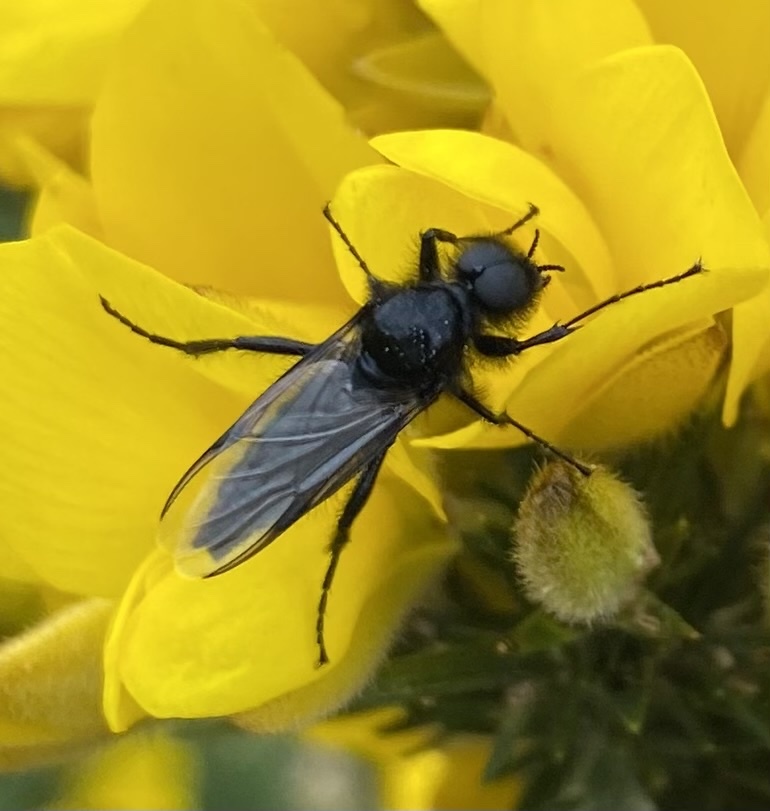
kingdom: Animalia
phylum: Arthropoda
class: Insecta
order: Diptera
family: Bibionidae
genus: Bibio
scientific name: Bibio marci
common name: St marks fly
